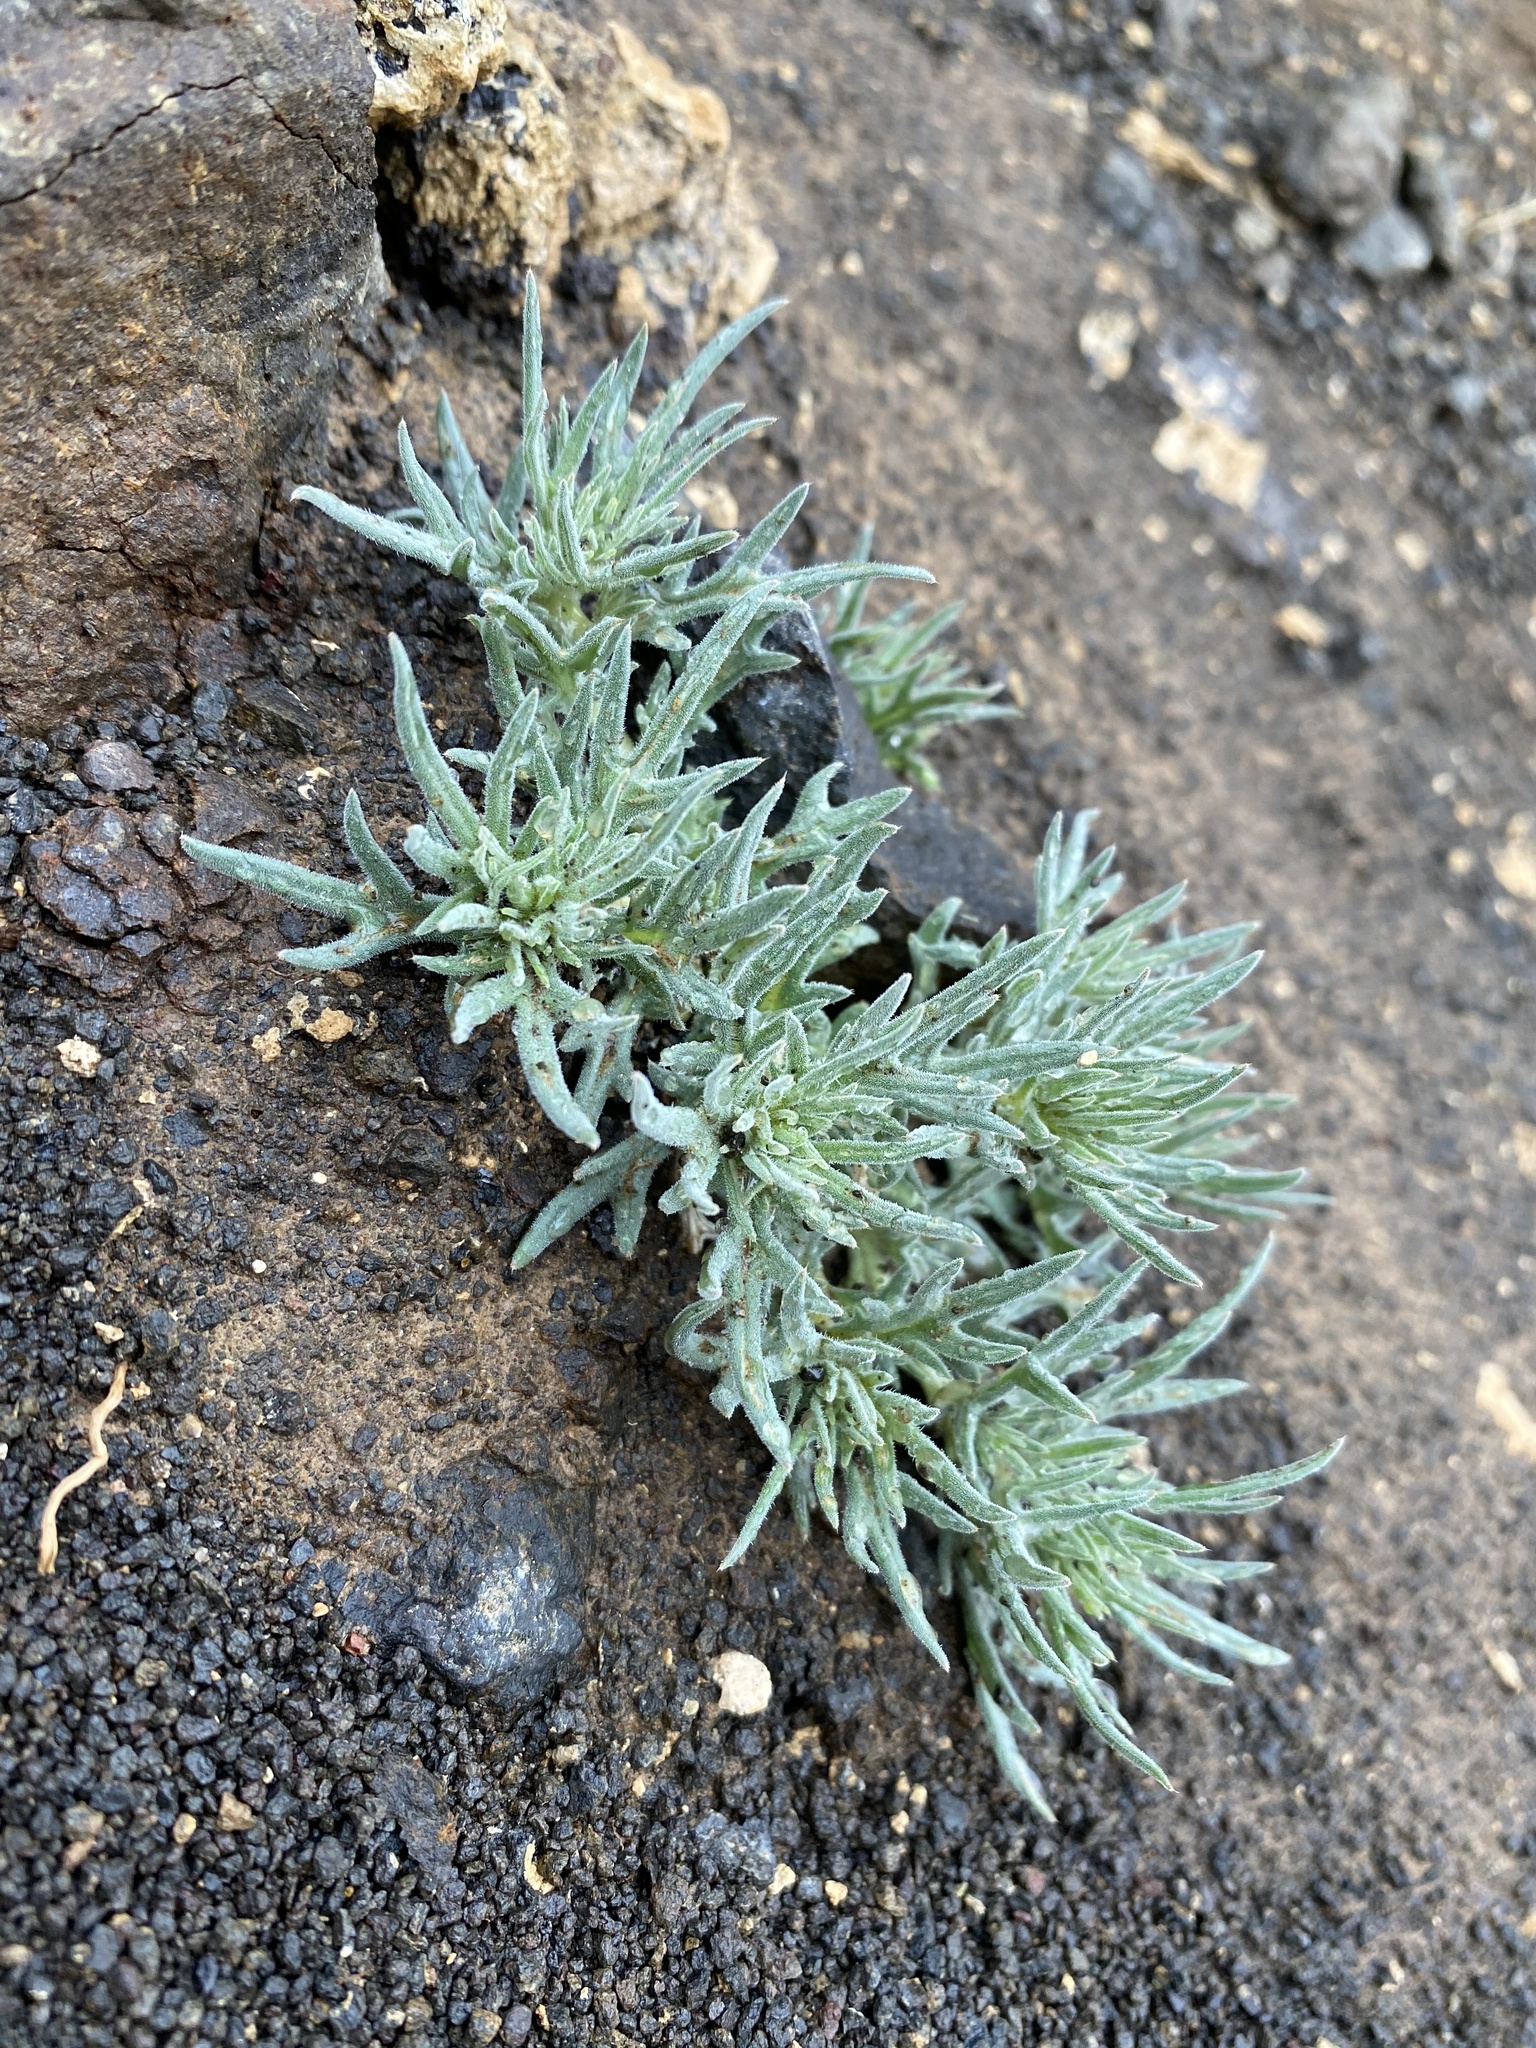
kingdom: Plantae
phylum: Tracheophyta
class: Magnoliopsida
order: Cornales
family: Loasaceae
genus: Mentzelia
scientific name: Mentzelia torreyi
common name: Torrey's blazingstar
